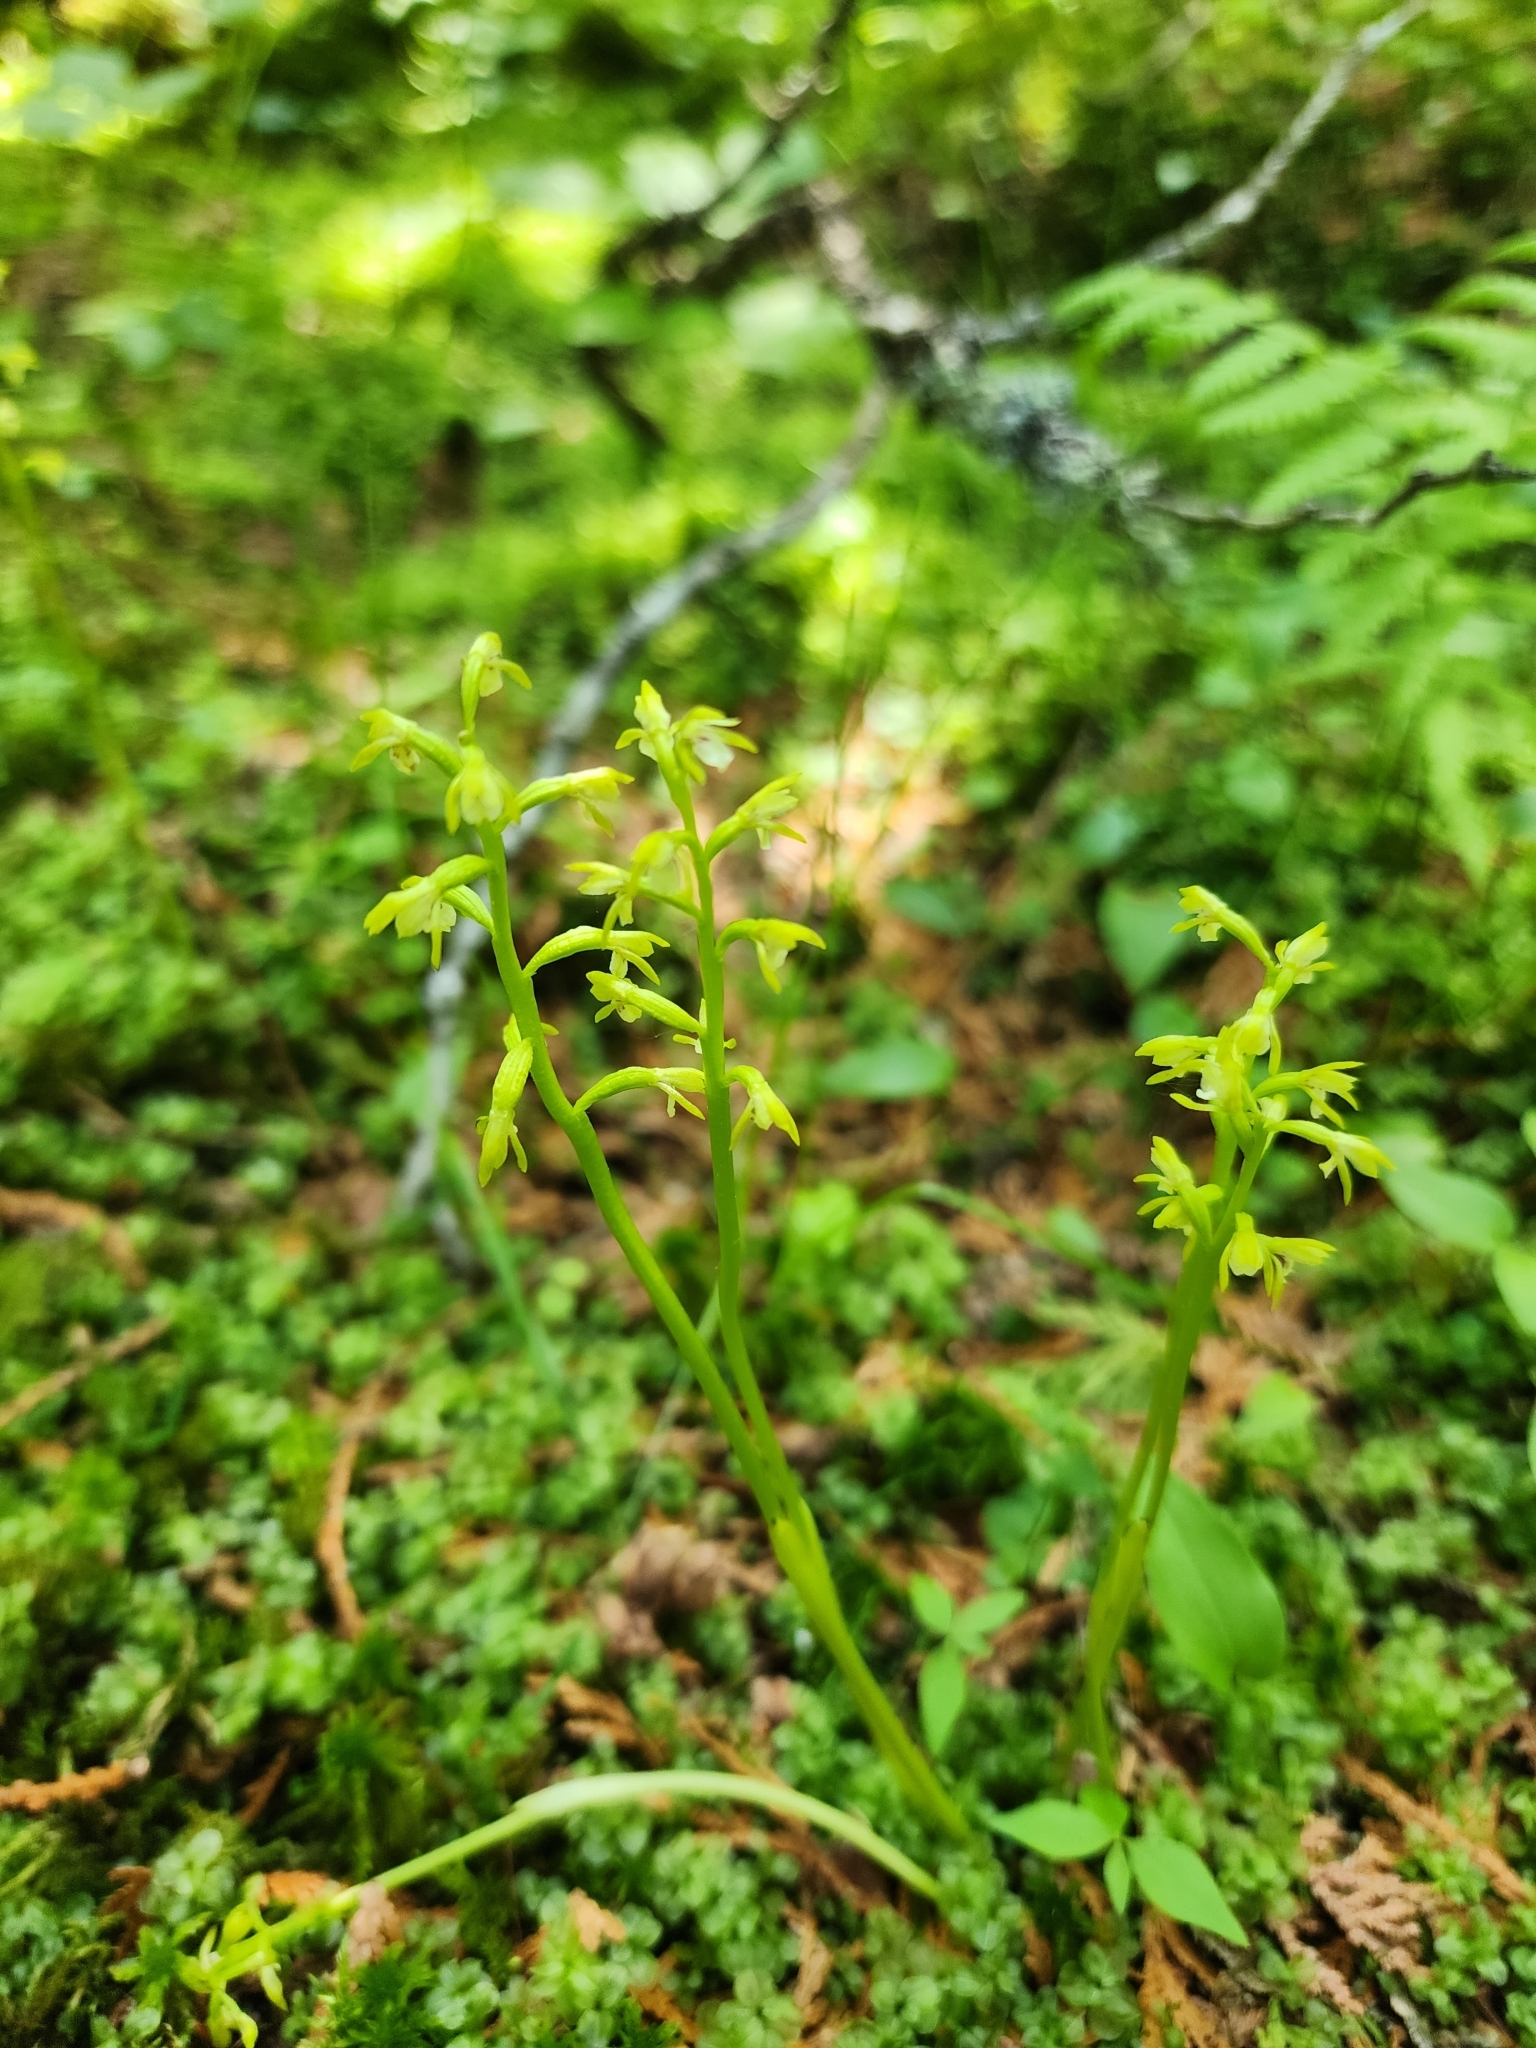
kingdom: Plantae
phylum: Tracheophyta
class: Liliopsida
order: Asparagales
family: Orchidaceae
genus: Corallorhiza
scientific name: Corallorhiza trifida
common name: Yellow coralroot
